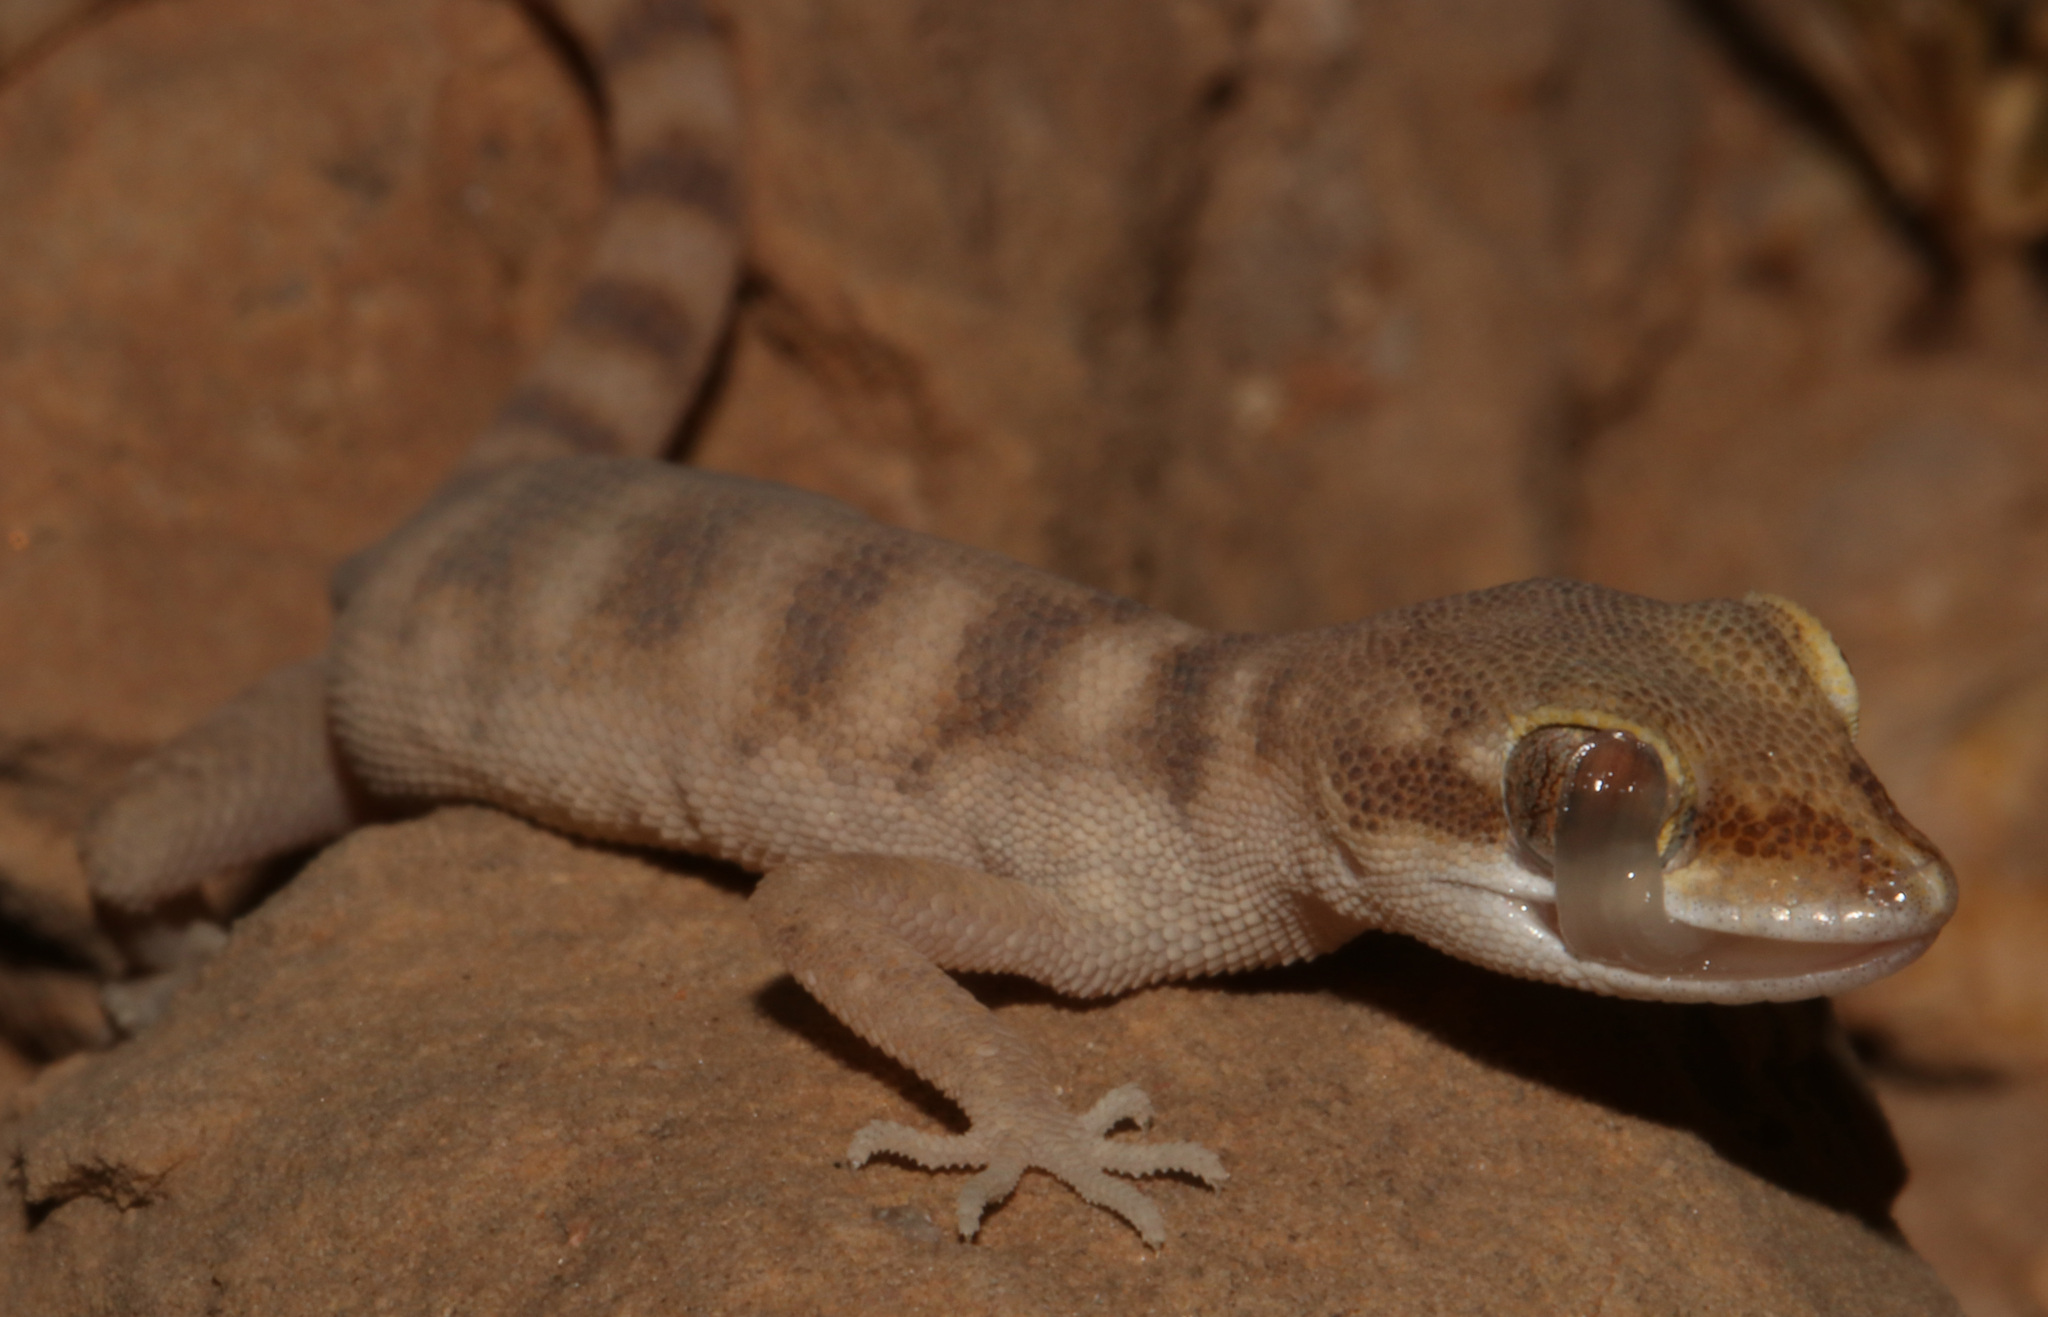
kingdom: Animalia
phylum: Chordata
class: Squamata
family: Gekkonidae
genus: Tropiocolotes
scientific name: Tropiocolotes wolfgangboehmei
